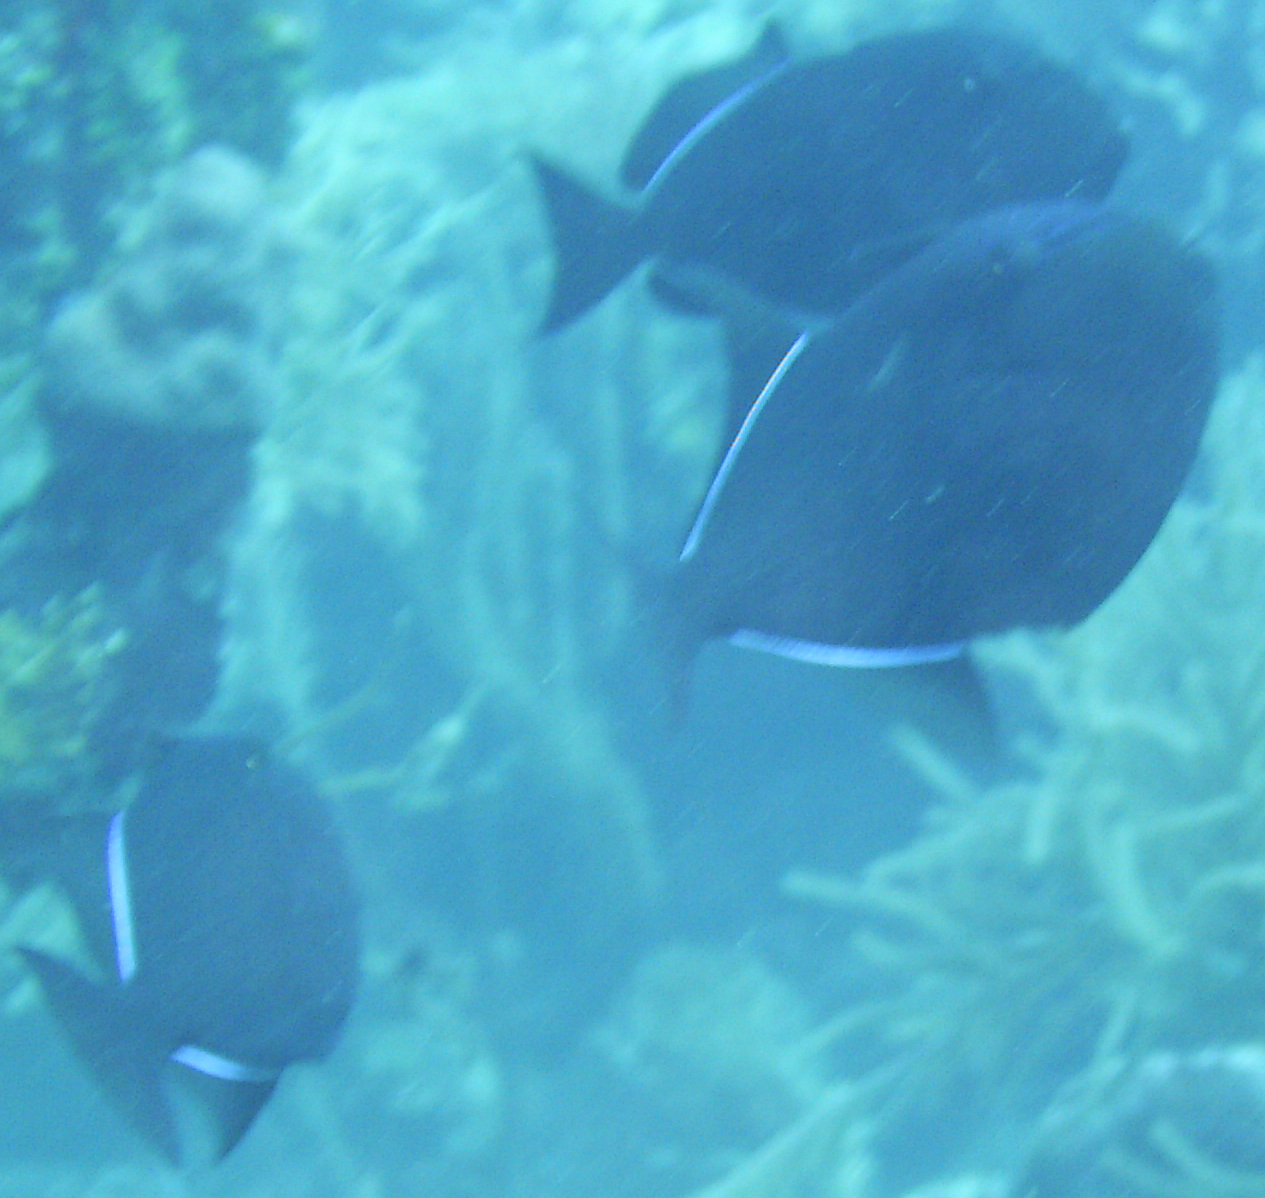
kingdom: Animalia
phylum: Chordata
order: Tetraodontiformes
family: Balistidae
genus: Melichthys
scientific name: Melichthys niger
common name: Black durgon
